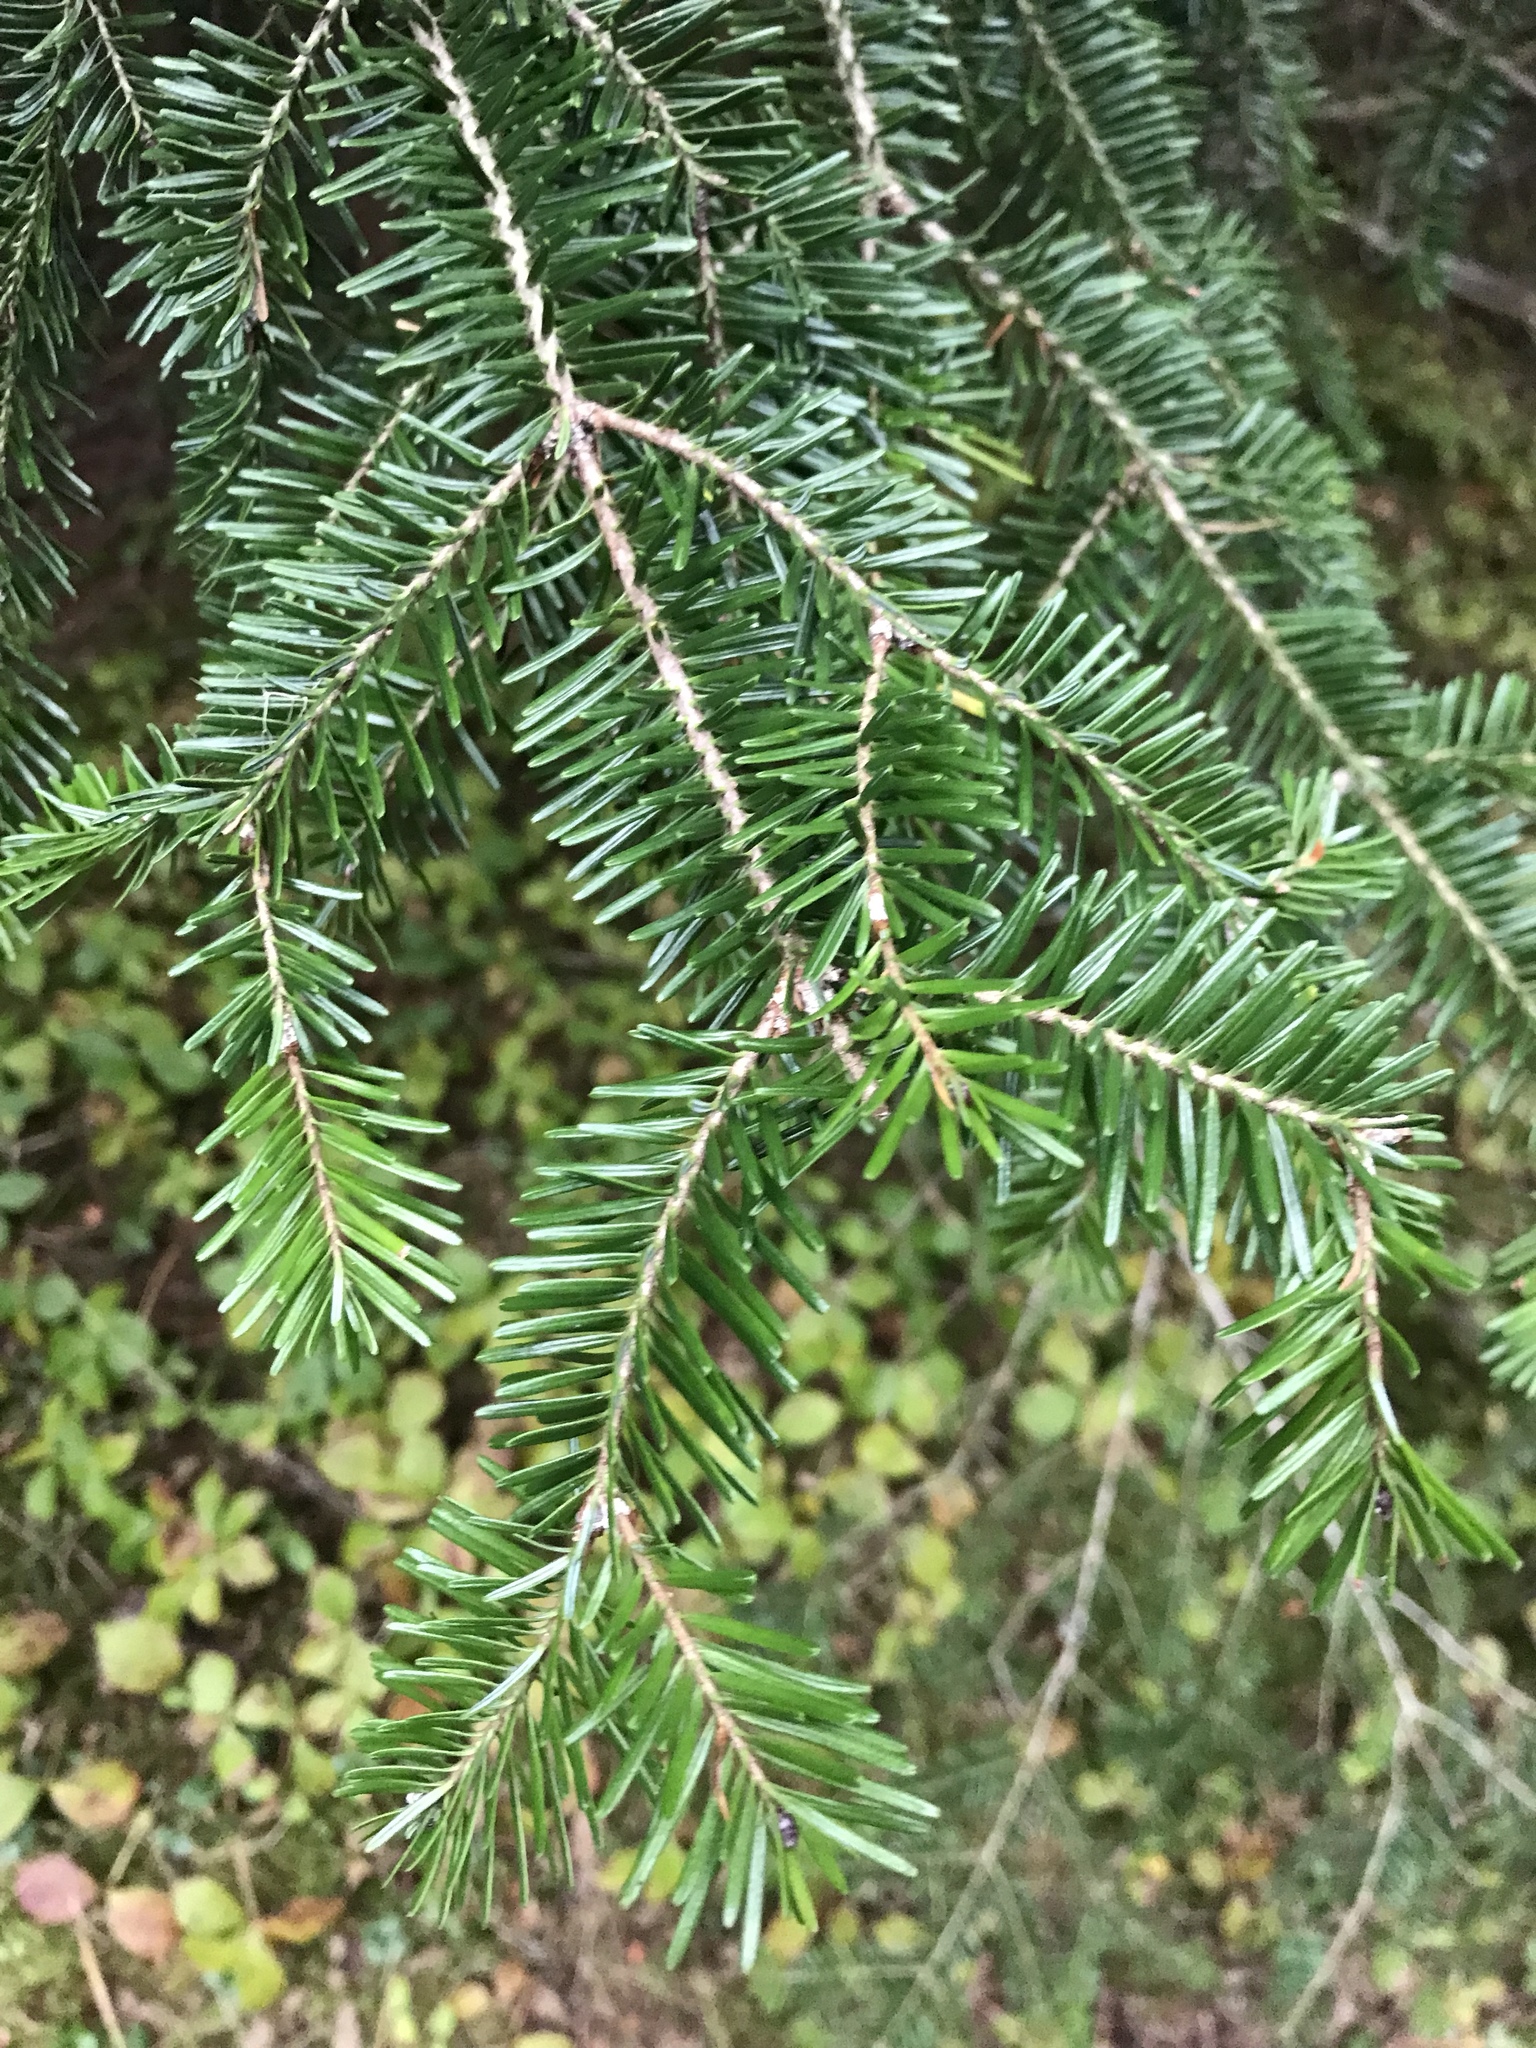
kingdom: Plantae
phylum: Tracheophyta
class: Pinopsida
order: Pinales
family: Pinaceae
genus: Abies
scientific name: Abies balsamea
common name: Balsam fir
